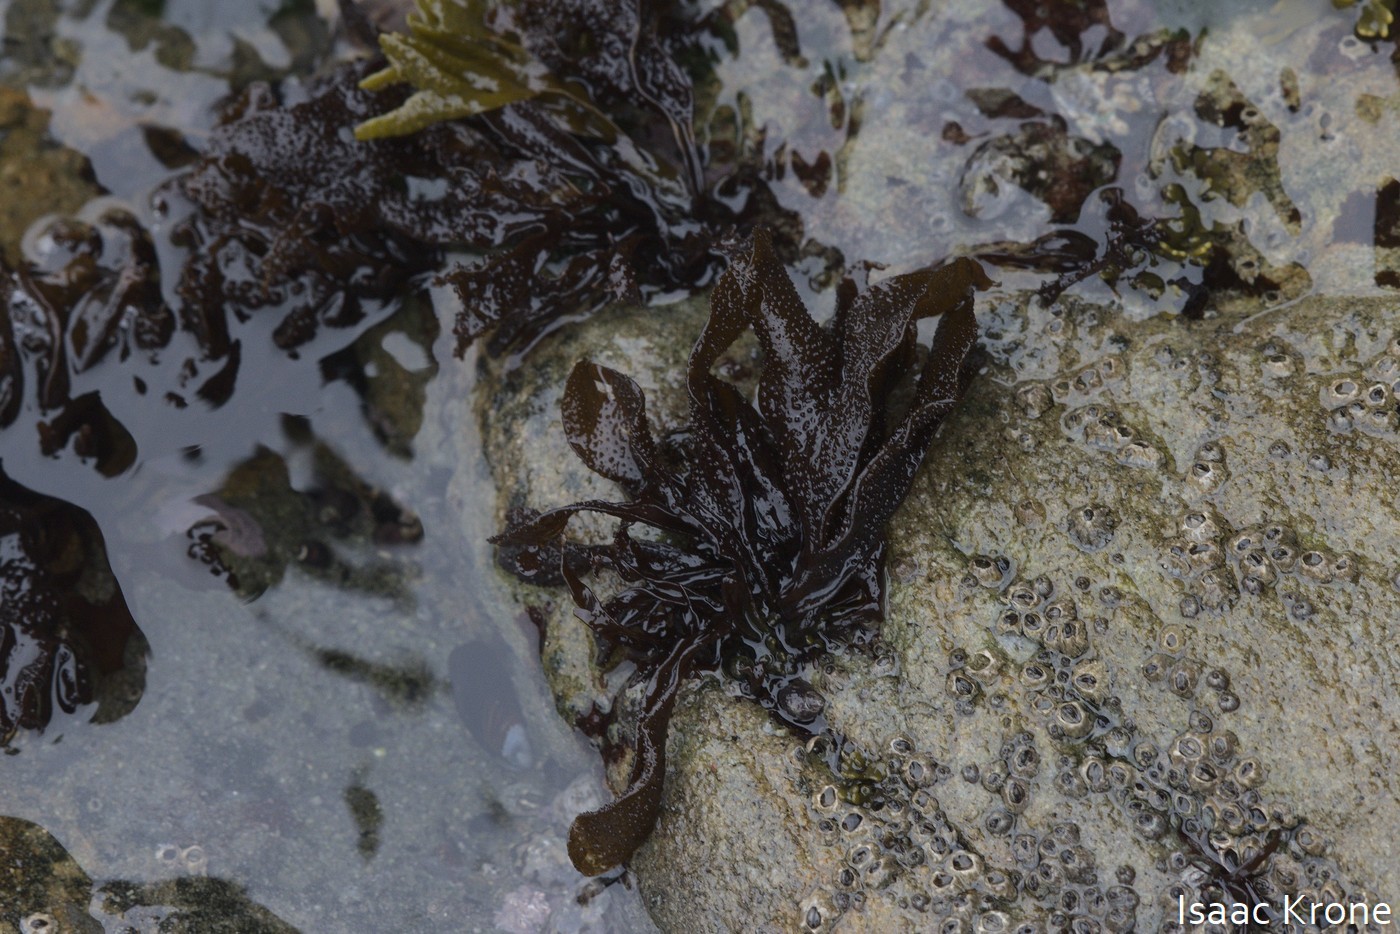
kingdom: Plantae
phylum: Rhodophyta
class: Florideophyceae
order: Gigartinales
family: Phyllophoraceae
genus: Mastocarpus
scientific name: Mastocarpus papillatus
